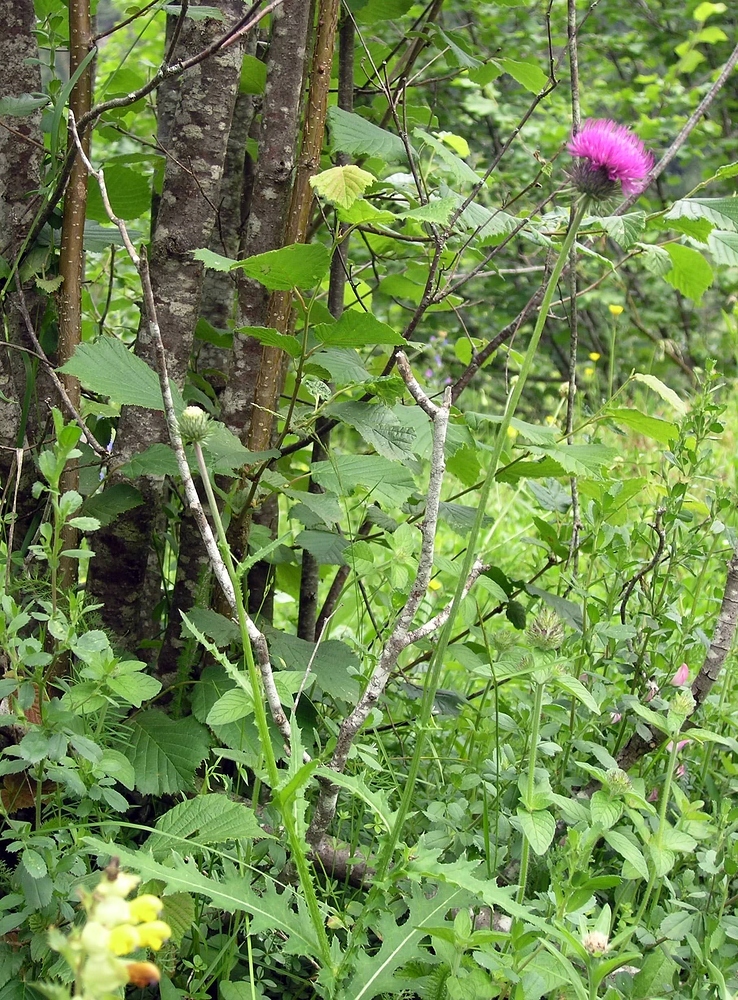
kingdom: Plantae
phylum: Tracheophyta
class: Magnoliopsida
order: Asterales
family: Asteraceae
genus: Carduus
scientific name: Carduus defloratus
